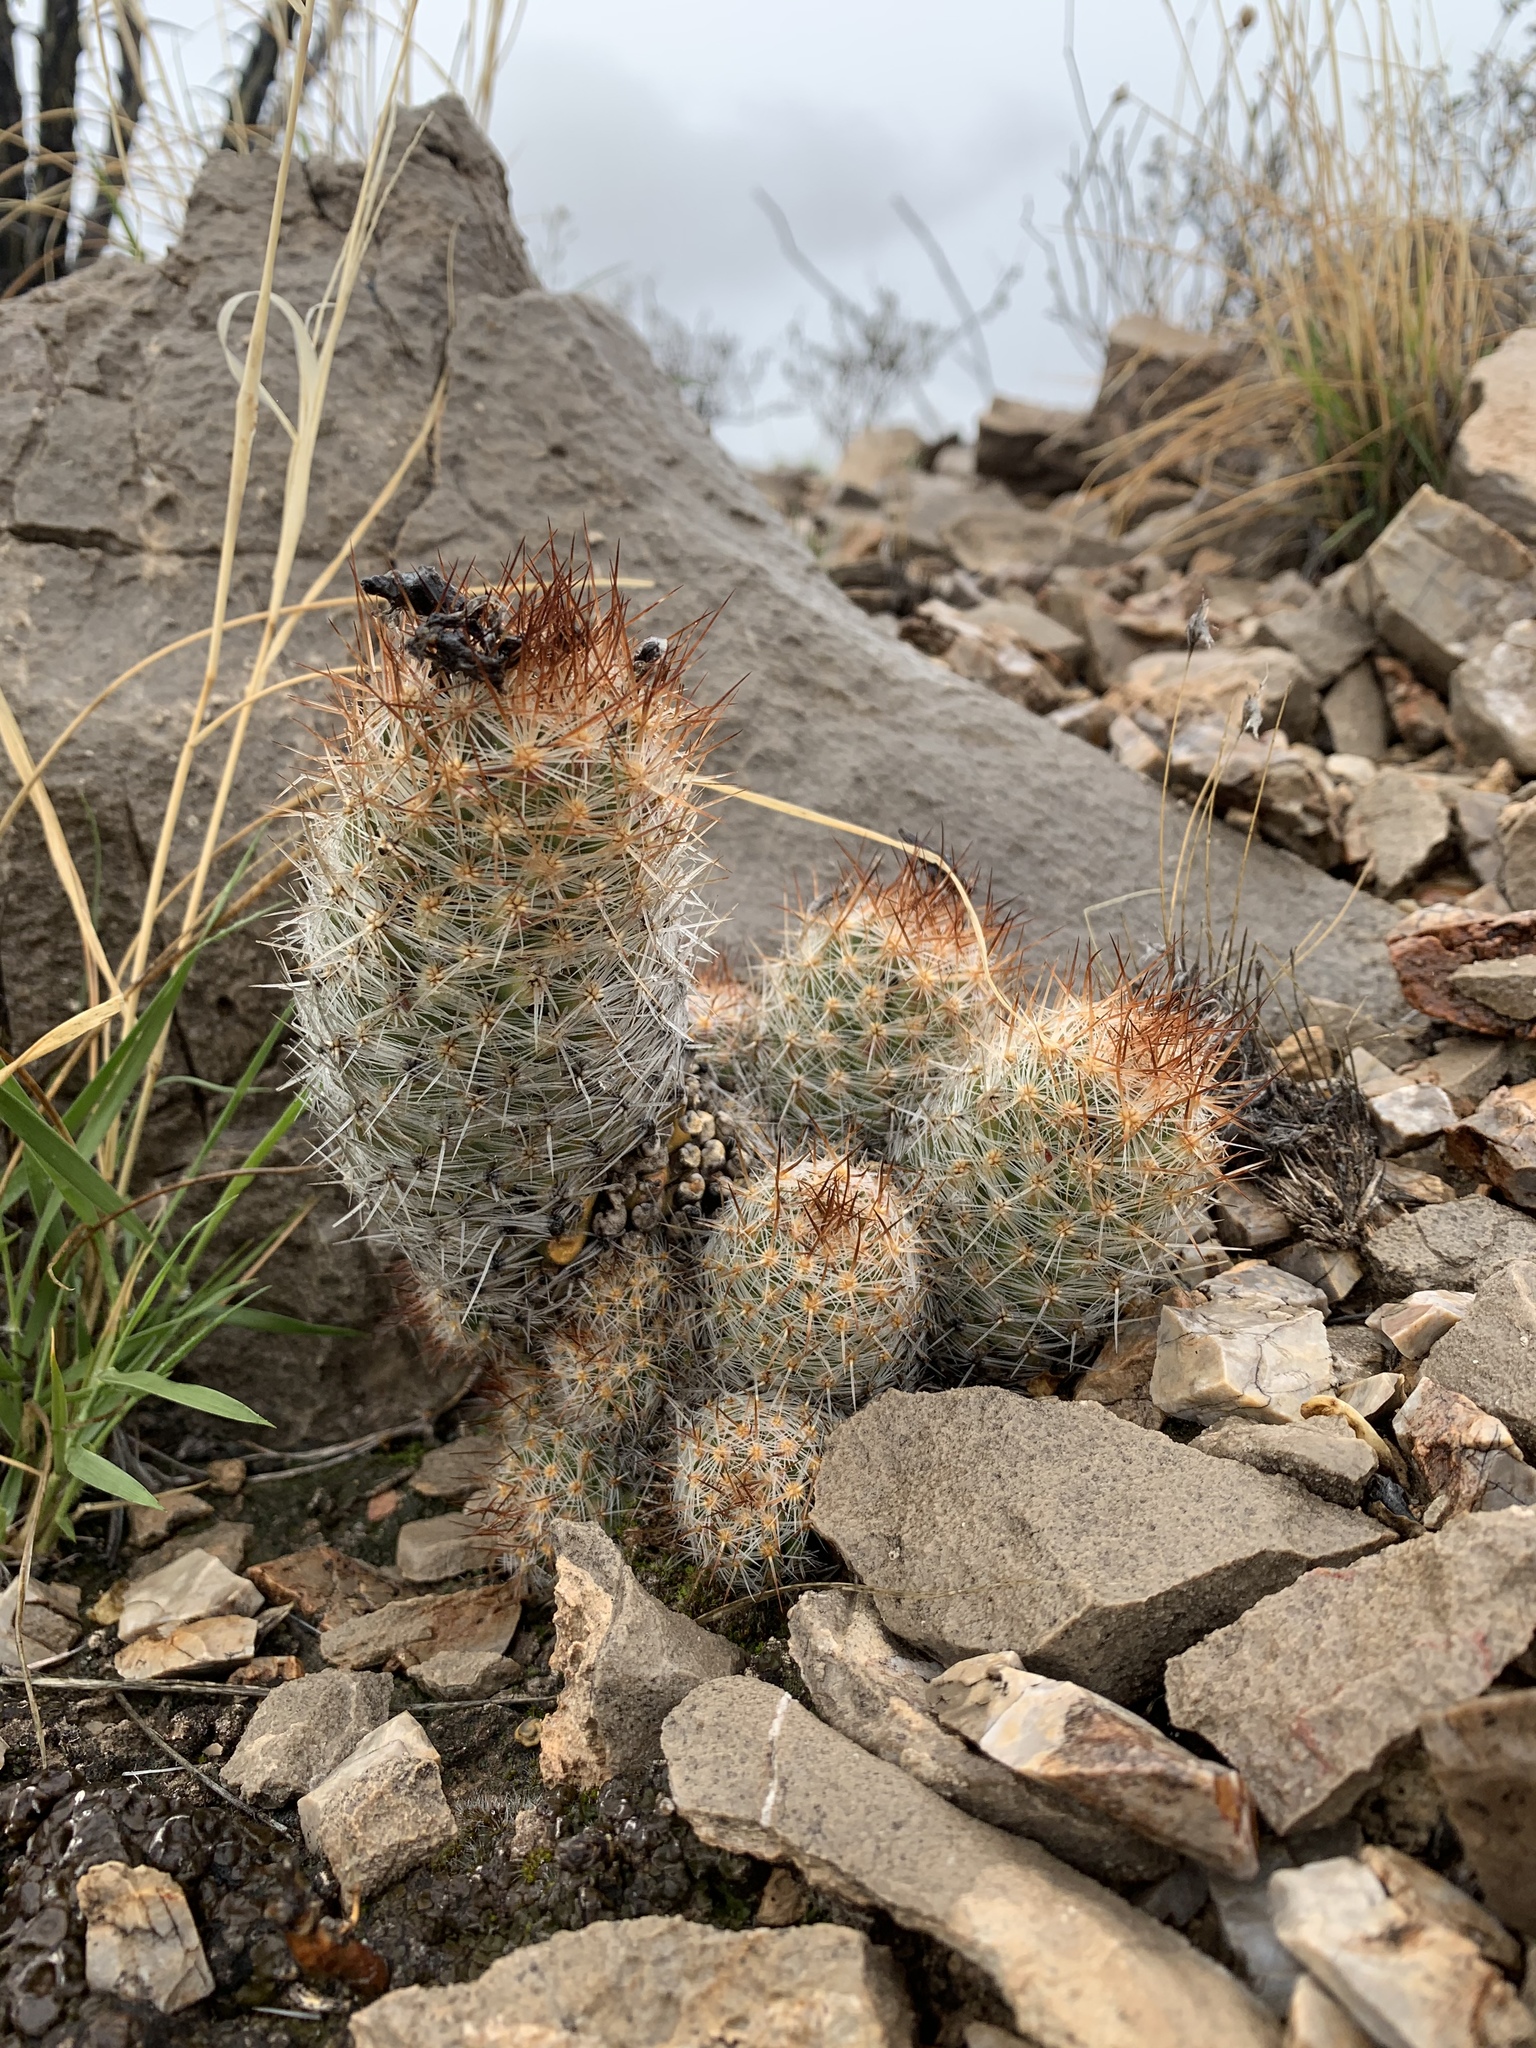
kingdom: Plantae
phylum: Tracheophyta
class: Magnoliopsida
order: Caryophyllales
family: Cactaceae
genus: Pelecyphora
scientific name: Pelecyphora tuberculosa
